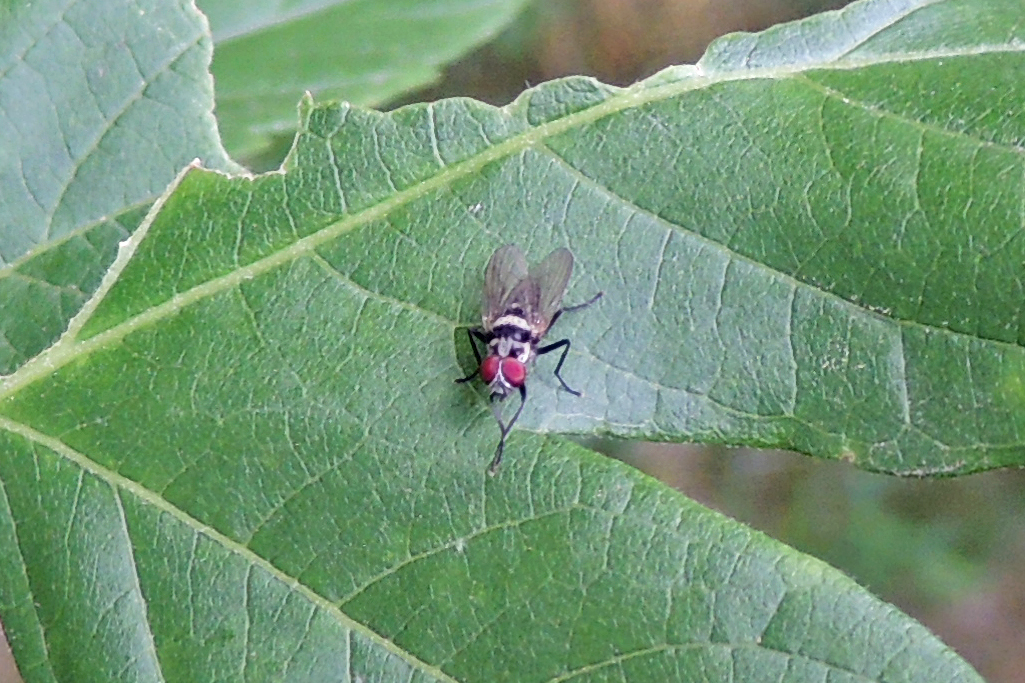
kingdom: Animalia
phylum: Arthropoda
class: Insecta
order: Diptera
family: Anthomyiidae
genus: Anthomyia
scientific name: Anthomyia oculifera
